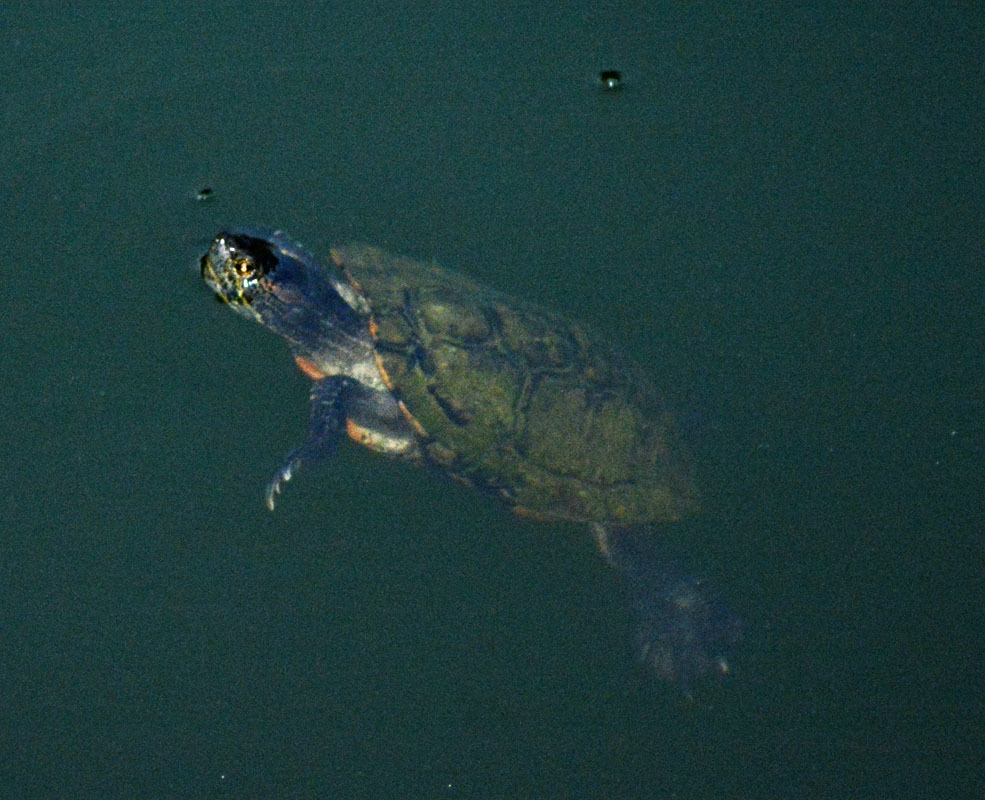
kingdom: Animalia
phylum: Chordata
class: Testudines
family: Emydidae
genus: Trachemys
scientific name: Trachemys scripta
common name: Slider
